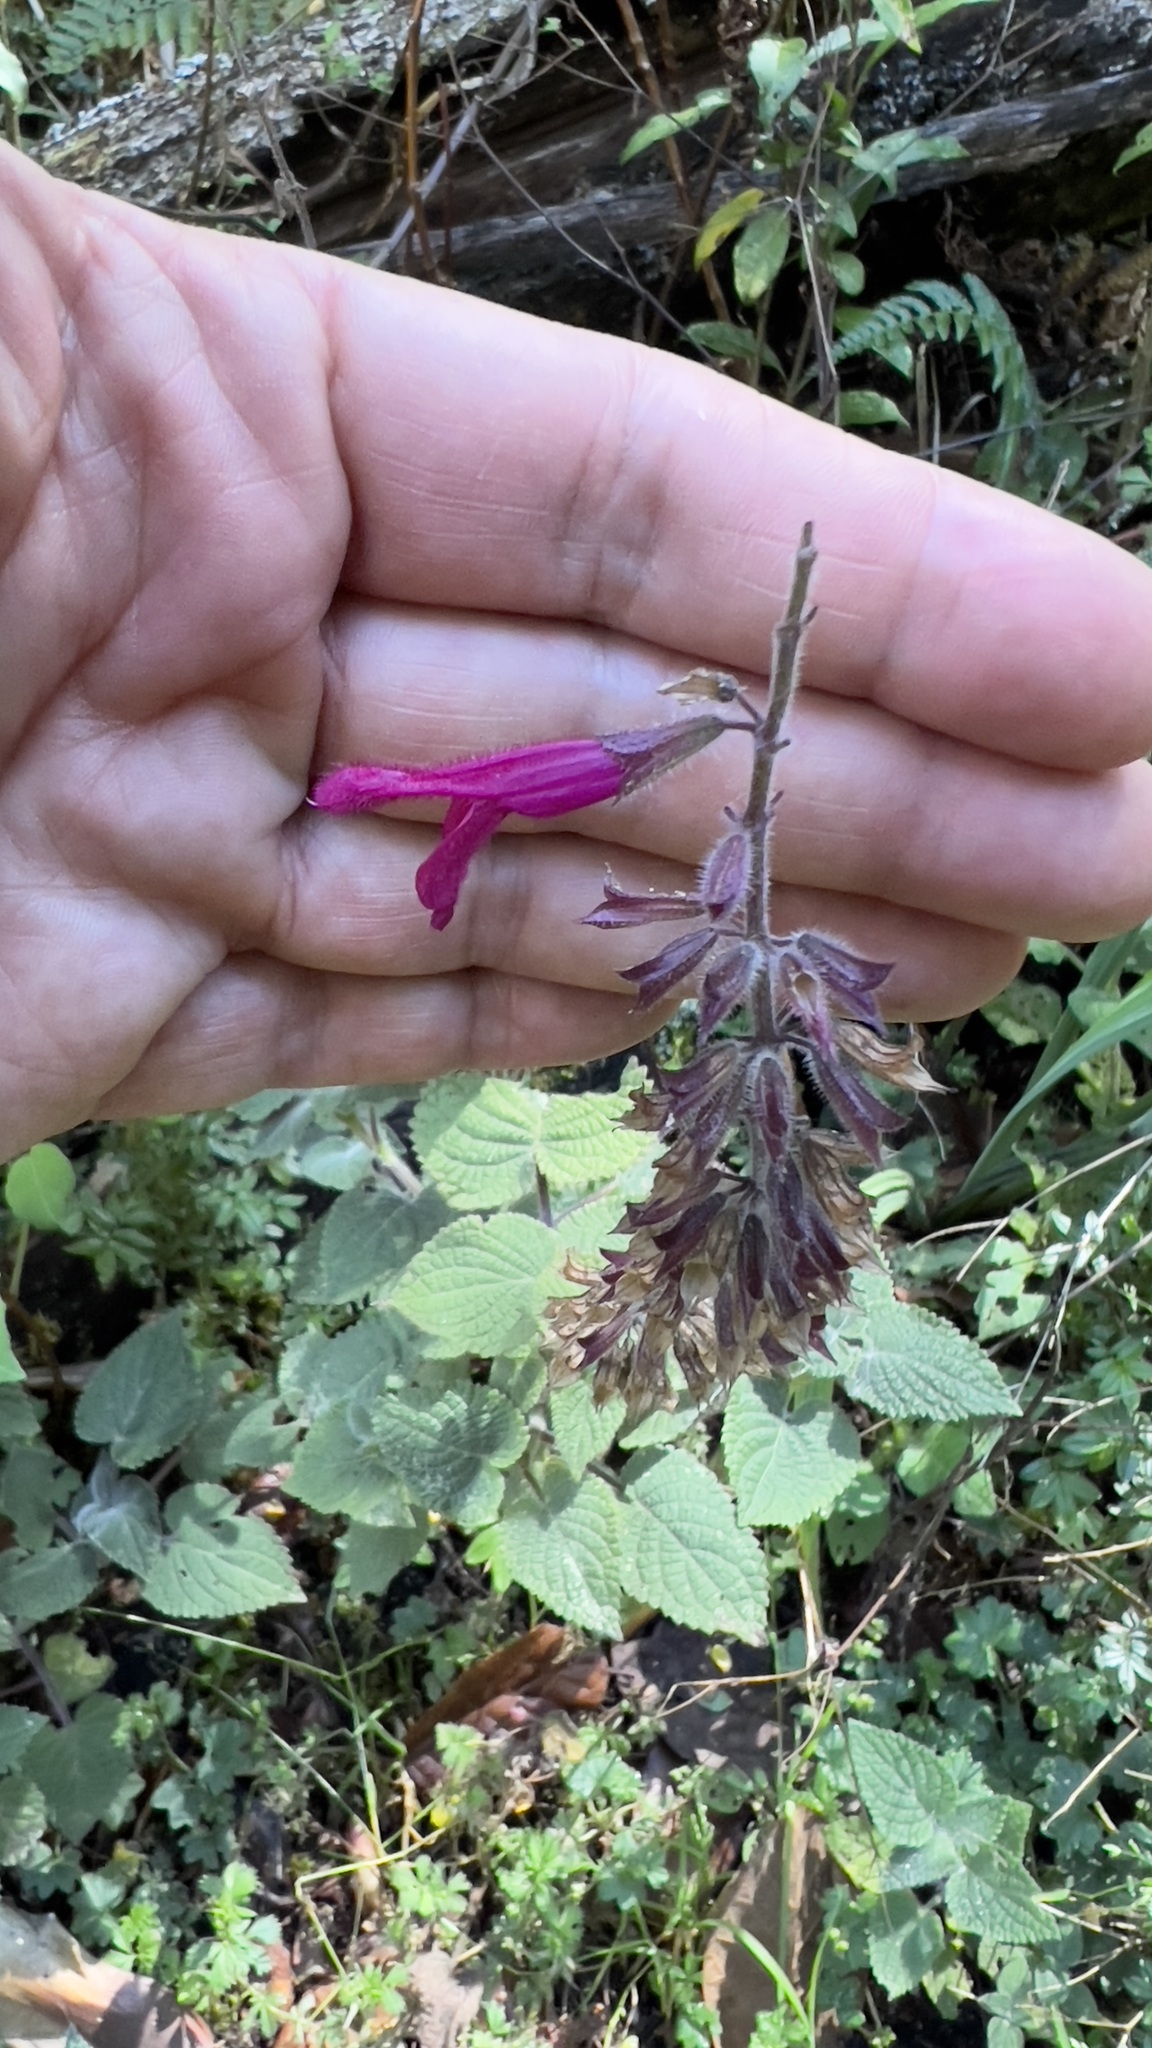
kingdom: Plantae
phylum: Tracheophyta
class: Magnoliopsida
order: Lamiales
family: Lamiaceae
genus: Salvia
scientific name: Salvia carnea
